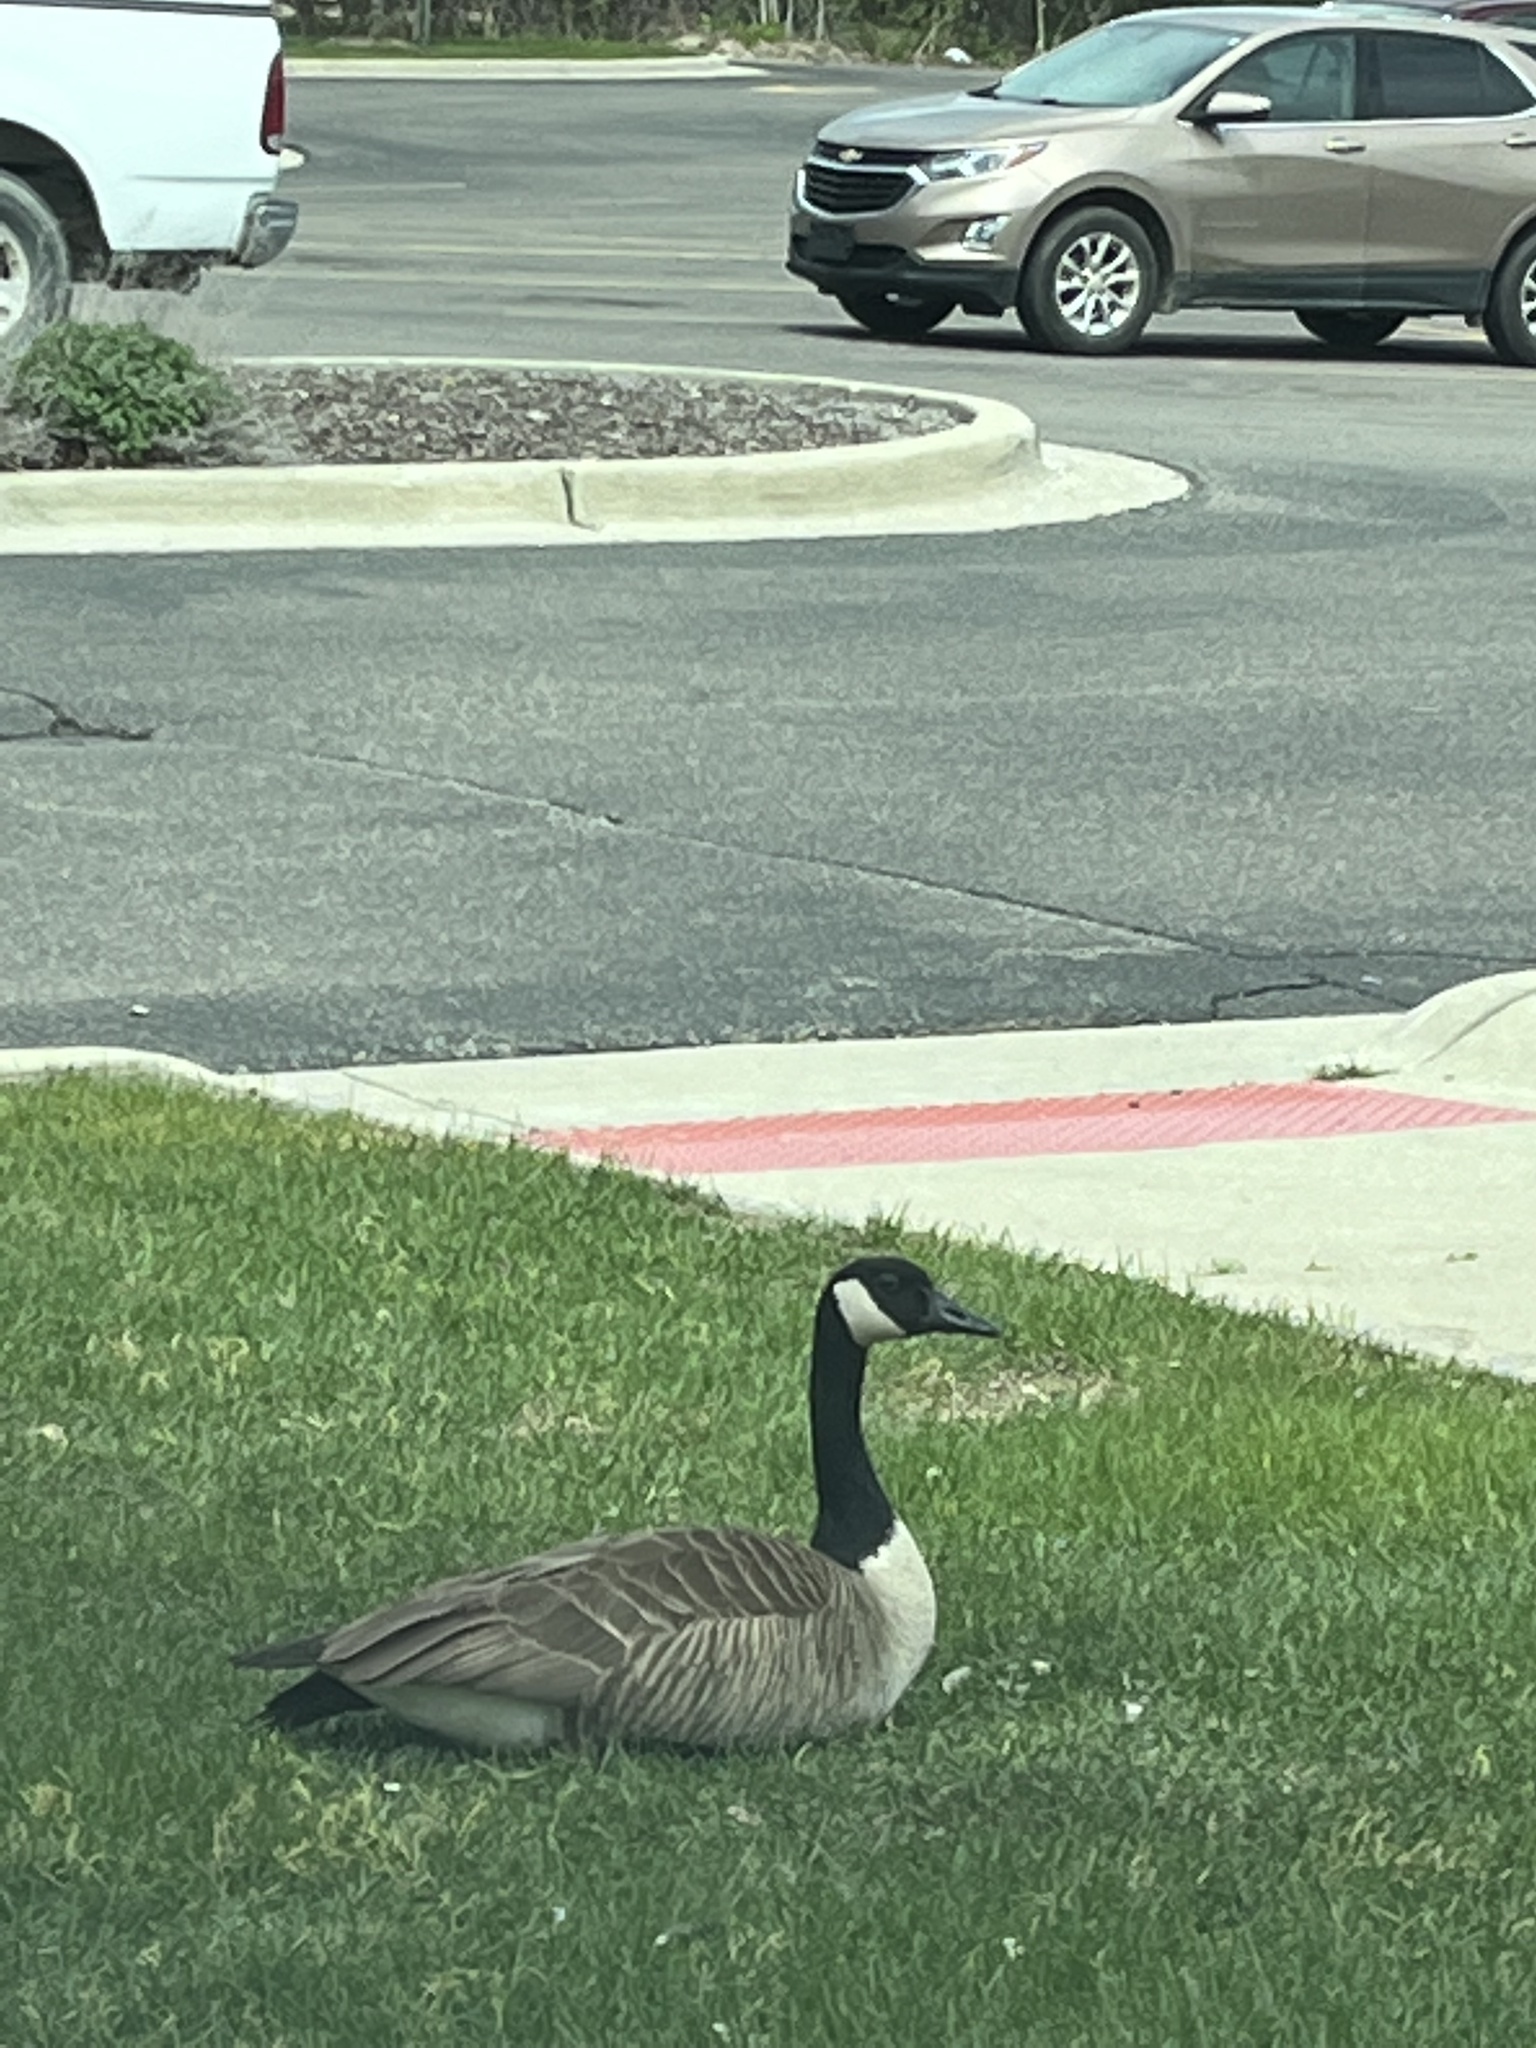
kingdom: Animalia
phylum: Chordata
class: Aves
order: Anseriformes
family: Anatidae
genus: Branta
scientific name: Branta canadensis
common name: Canada goose
